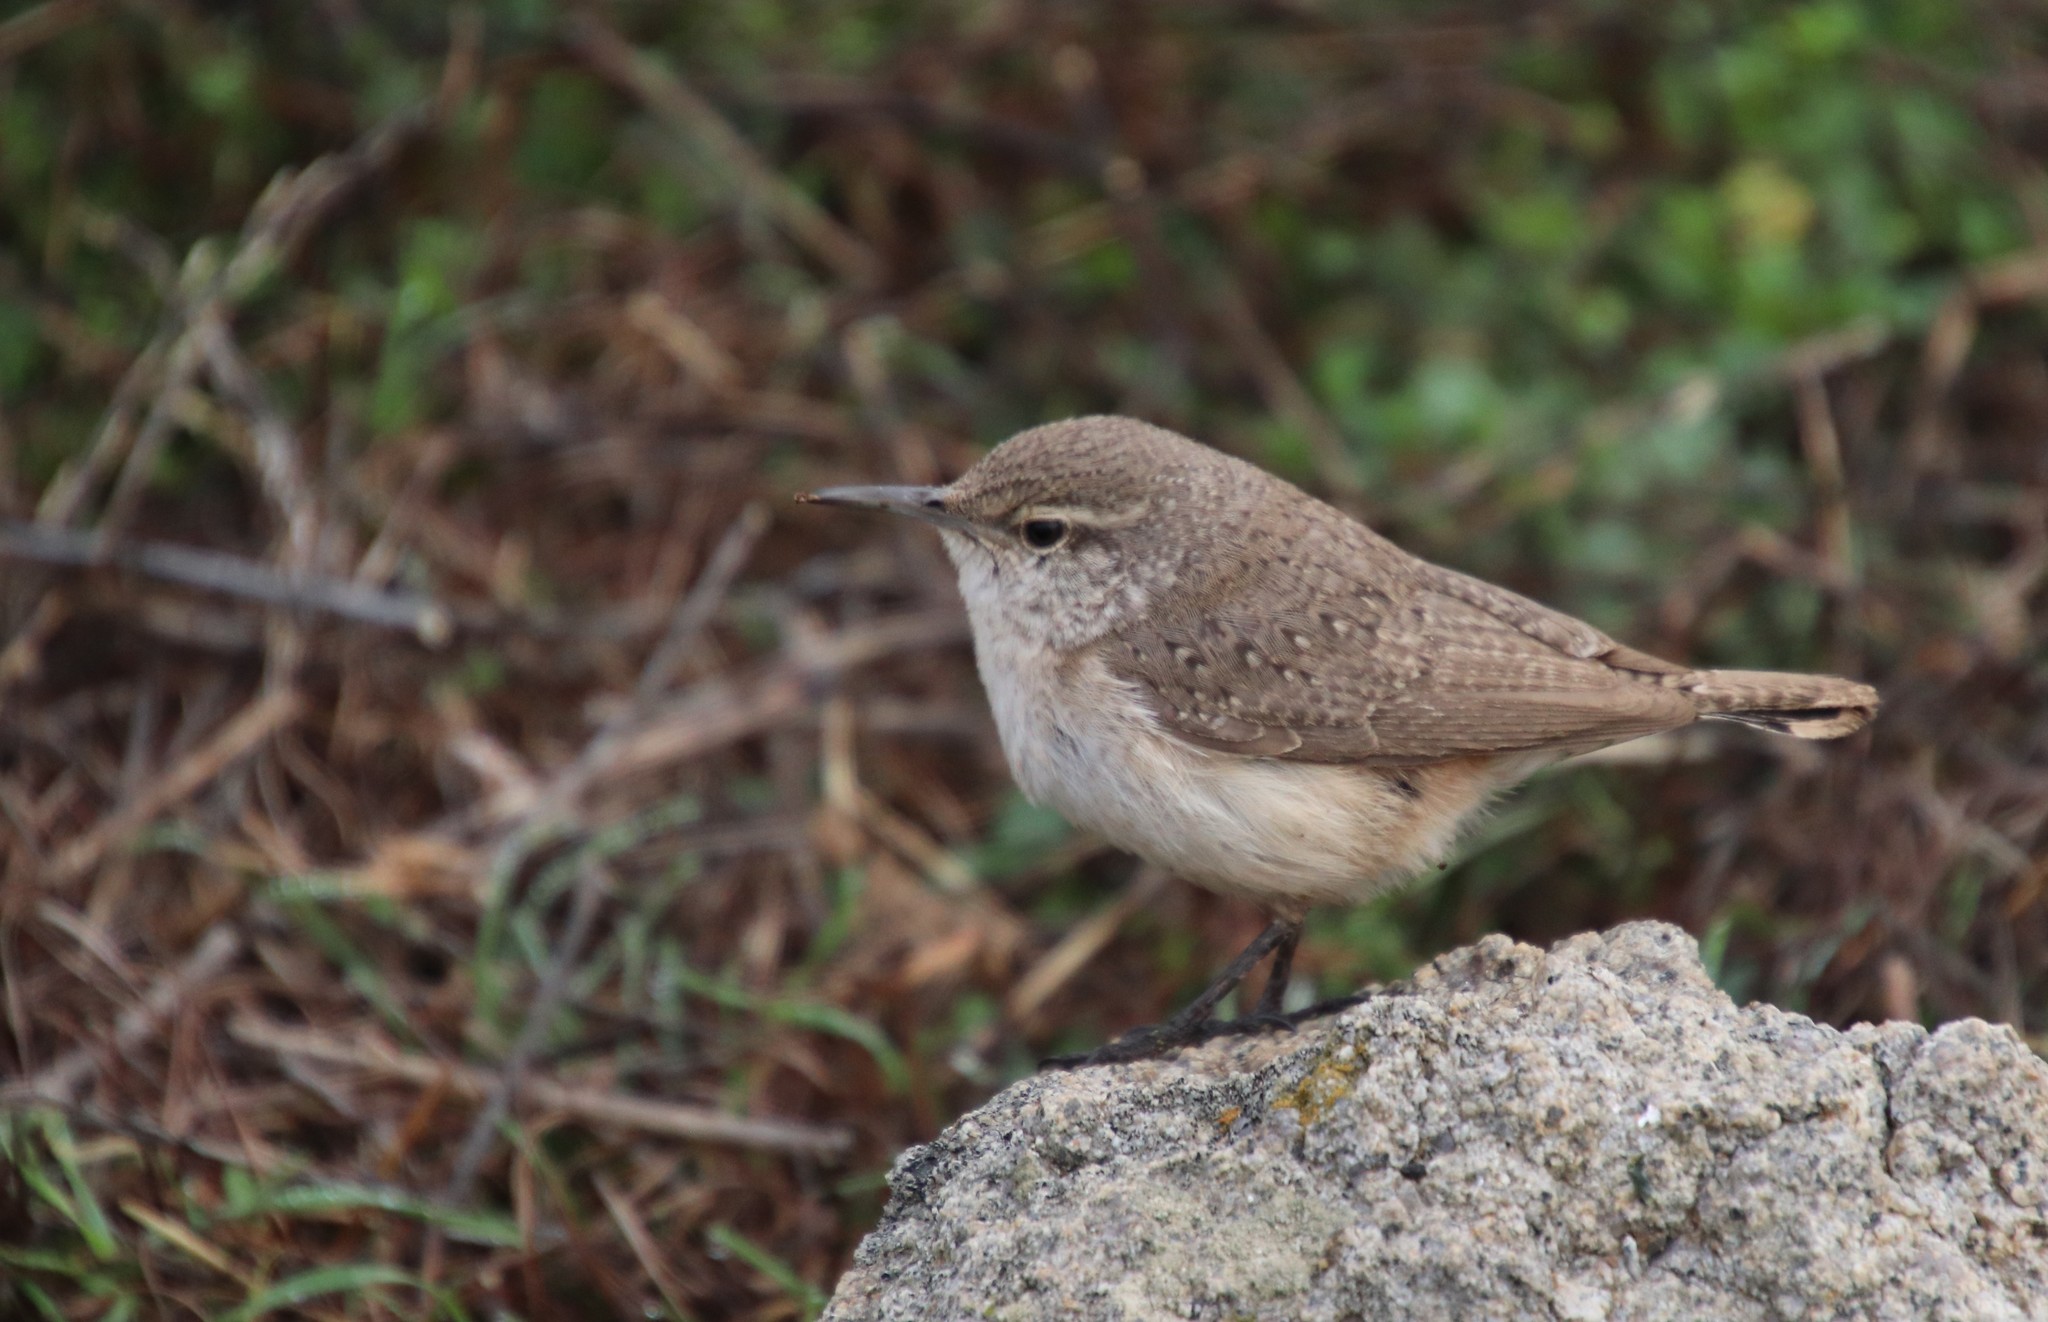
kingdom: Animalia
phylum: Chordata
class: Aves
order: Passeriformes
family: Troglodytidae
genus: Salpinctes
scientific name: Salpinctes obsoletus
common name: Rock wren
